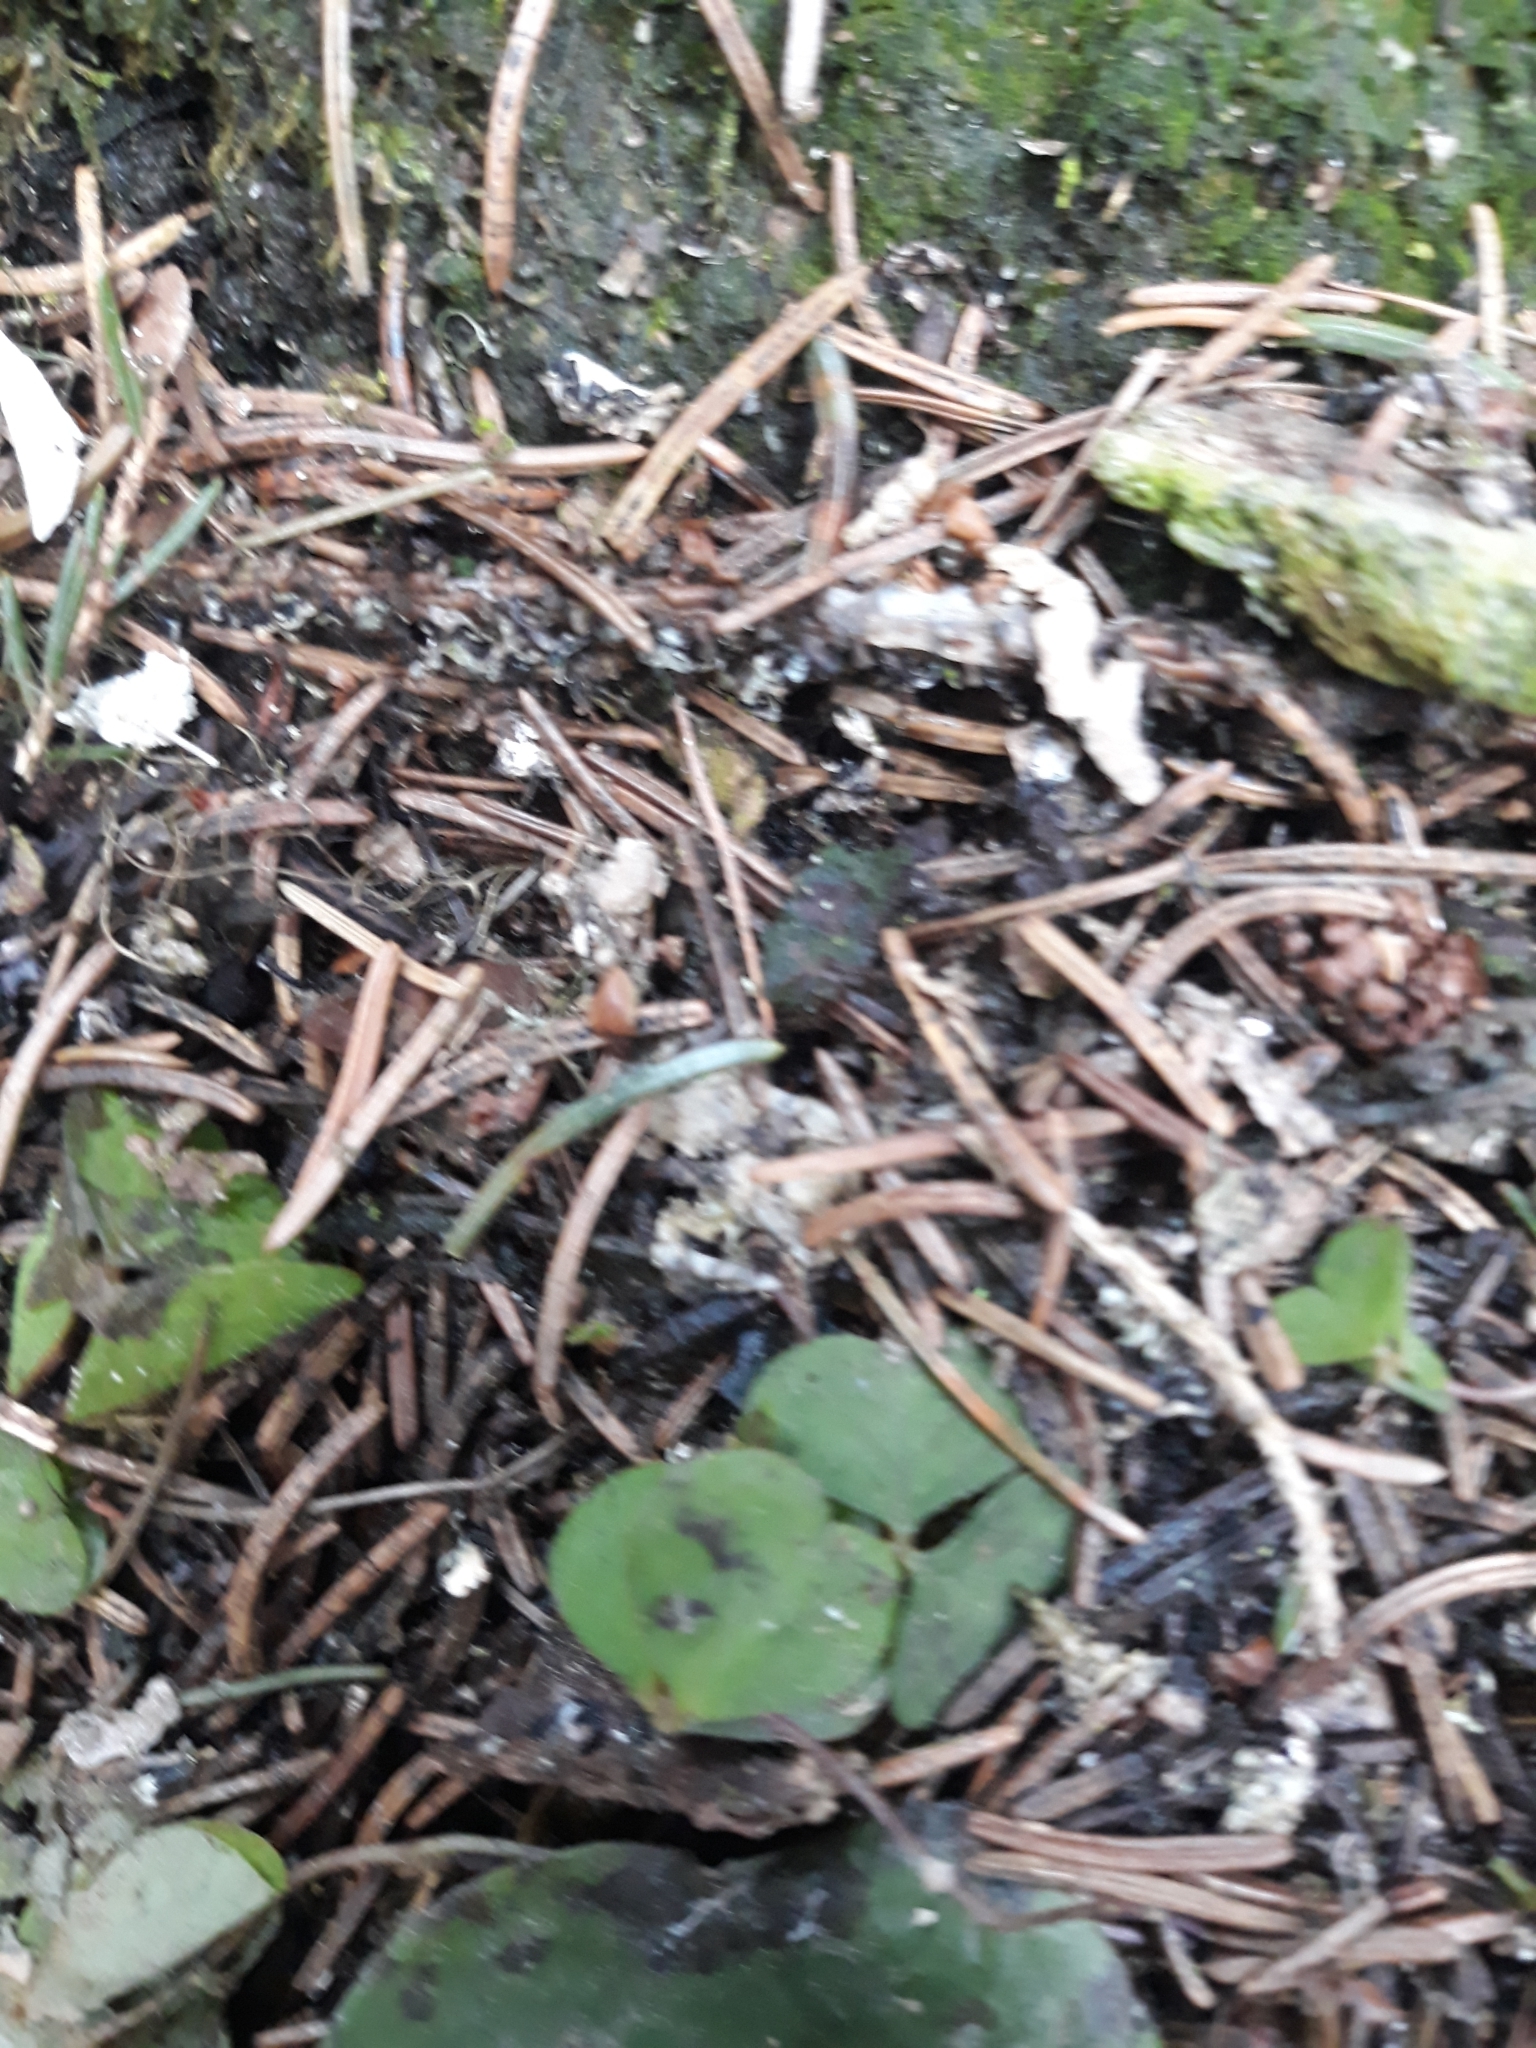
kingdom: Plantae
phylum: Tracheophyta
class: Magnoliopsida
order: Oxalidales
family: Oxalidaceae
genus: Oxalis
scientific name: Oxalis acetosella
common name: Wood-sorrel
